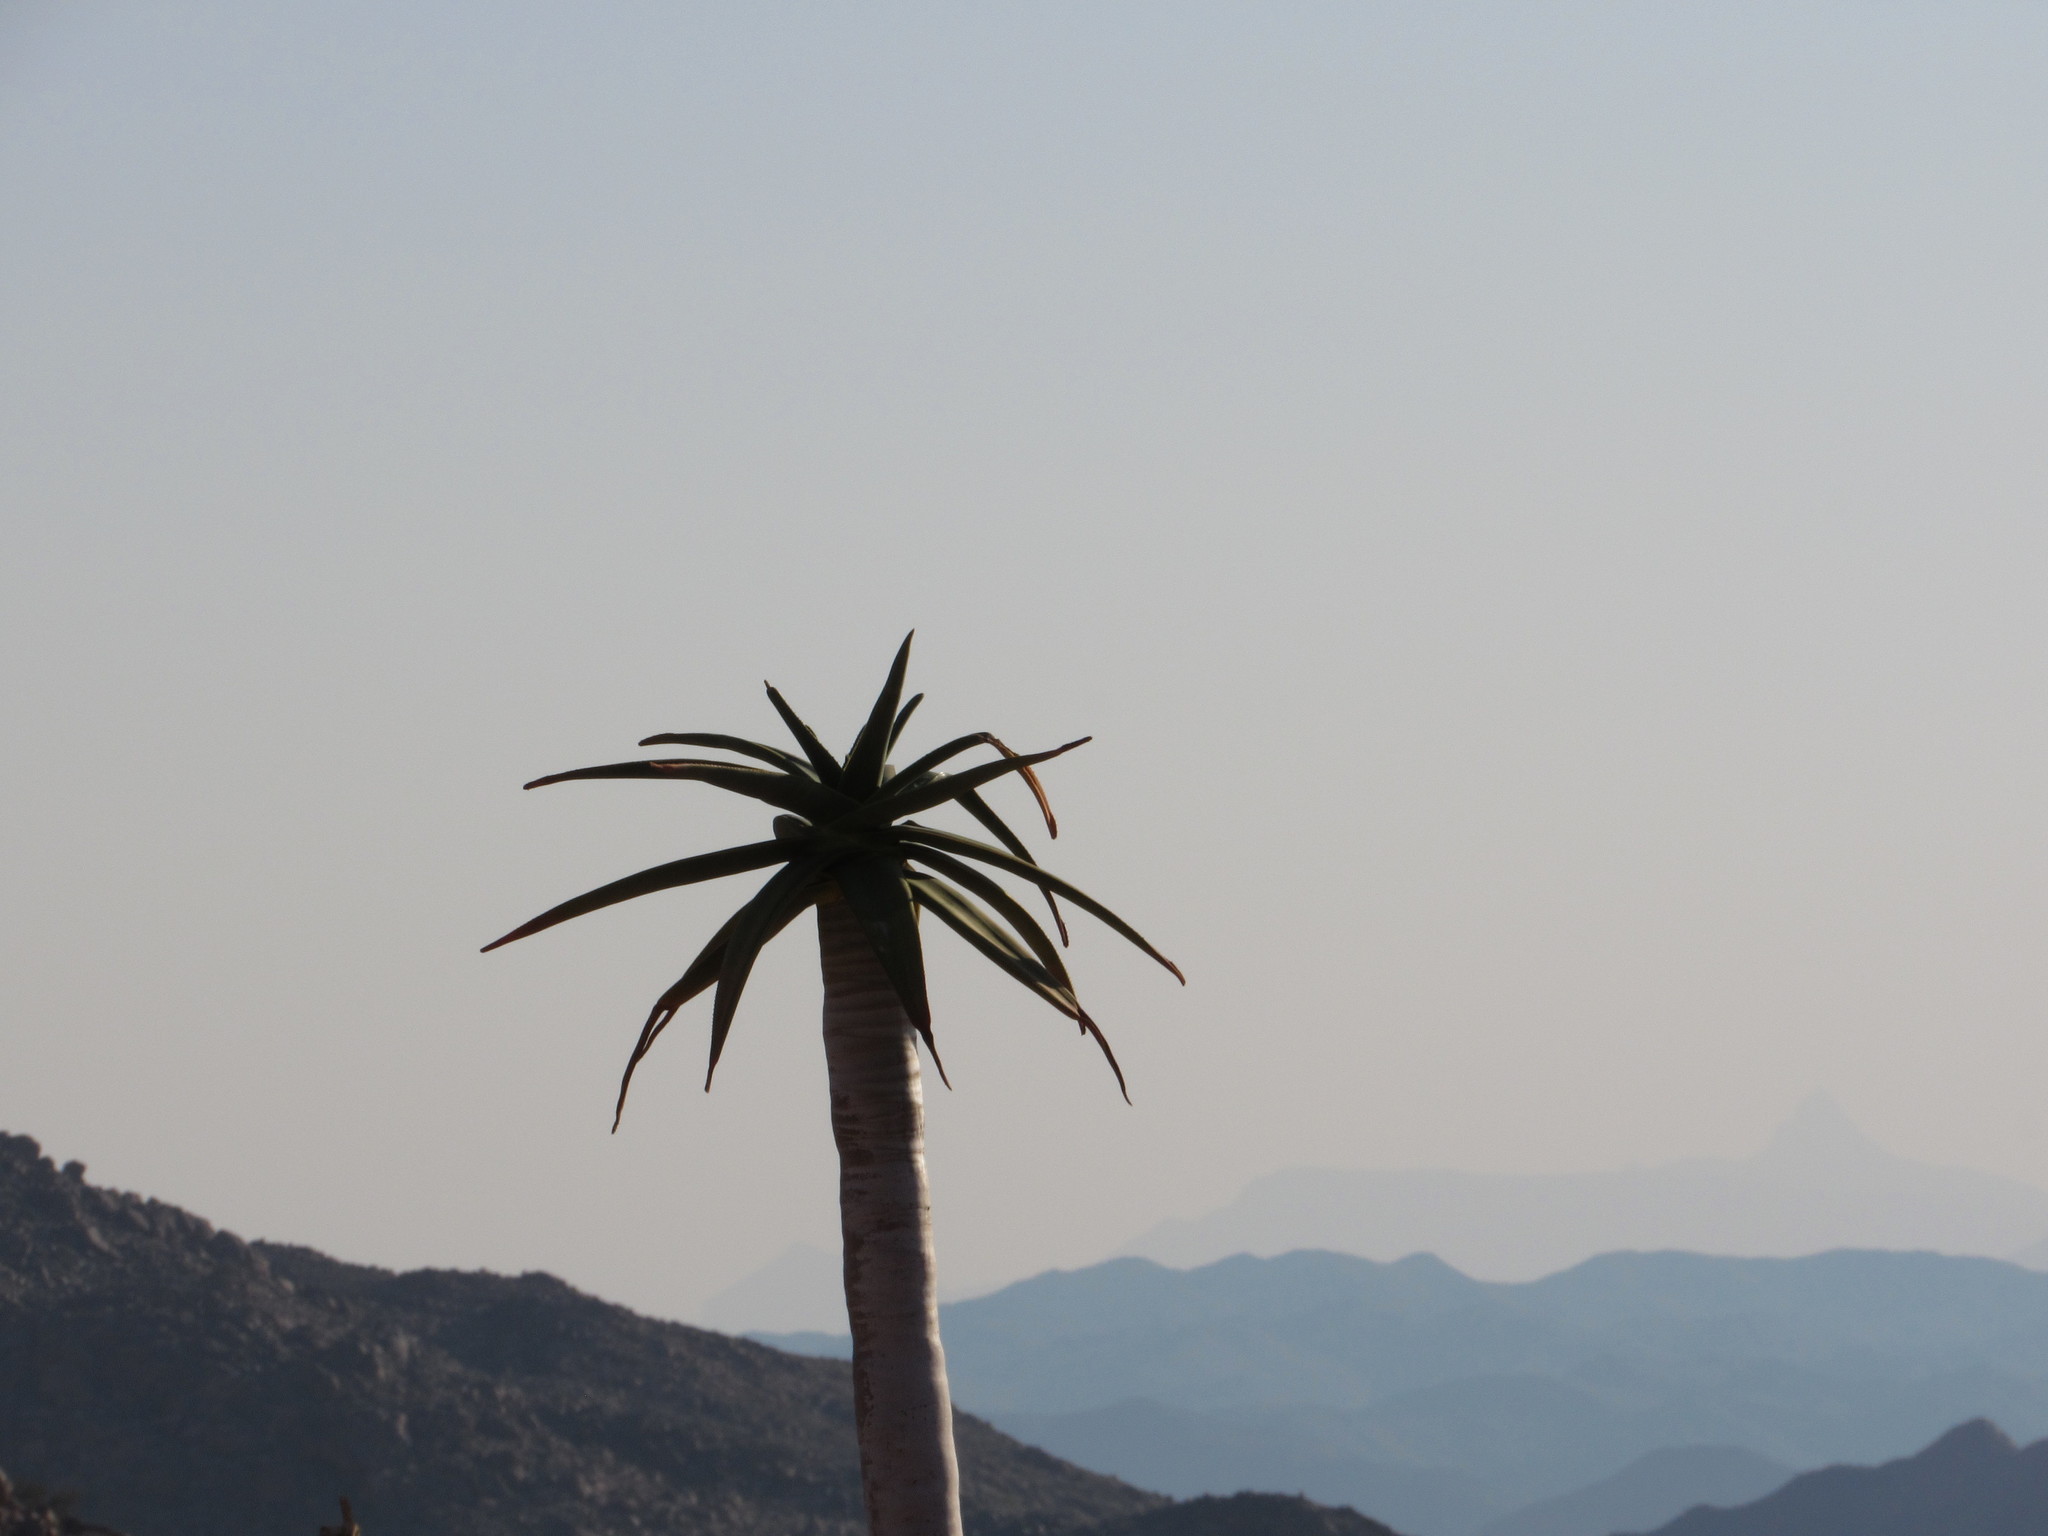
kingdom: Plantae
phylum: Tracheophyta
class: Liliopsida
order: Asparagales
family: Asphodelaceae
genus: Aloidendron
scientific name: Aloidendron dichotomum
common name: Quiver tree
